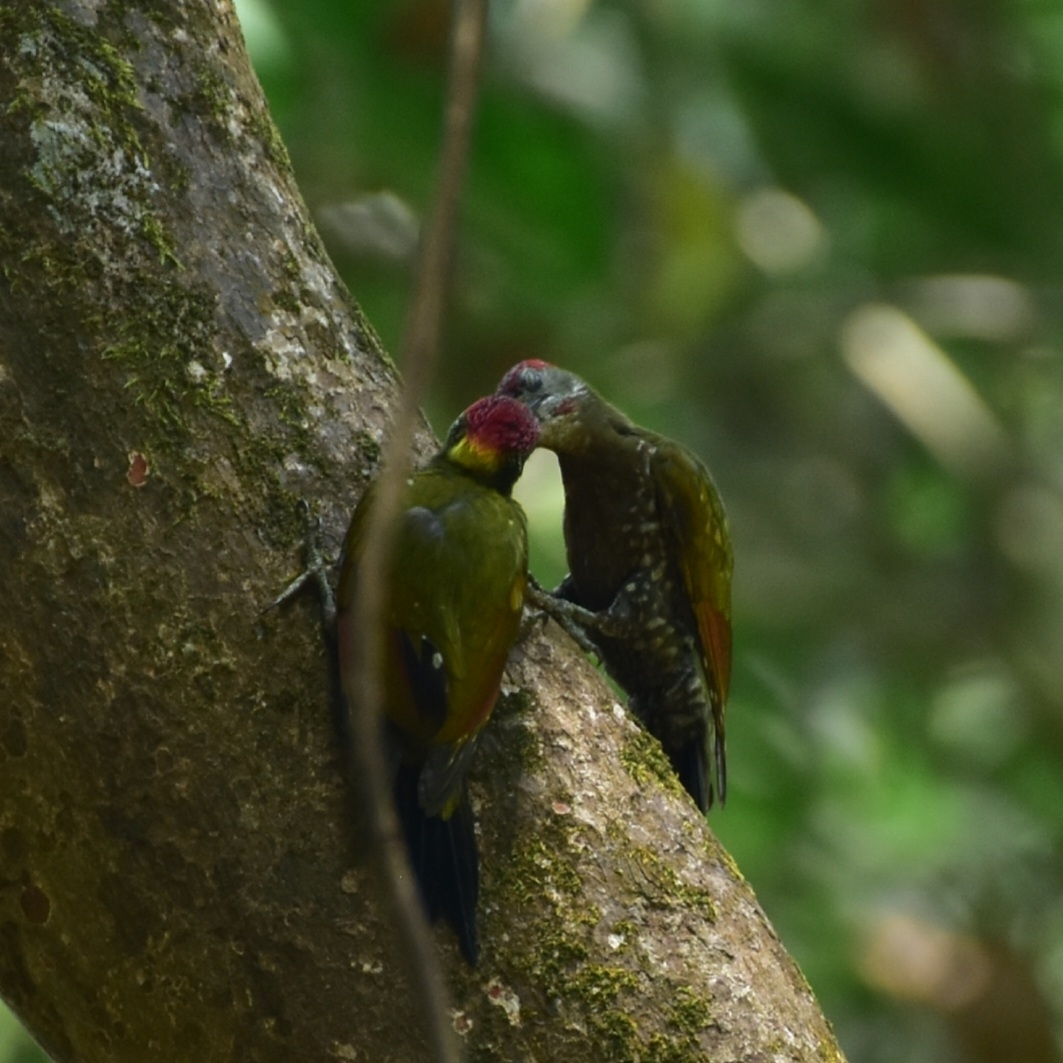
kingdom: Animalia
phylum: Chordata
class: Aves
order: Piciformes
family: Picidae
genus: Picus
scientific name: Picus chlorolophus
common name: Lesser yellownape
